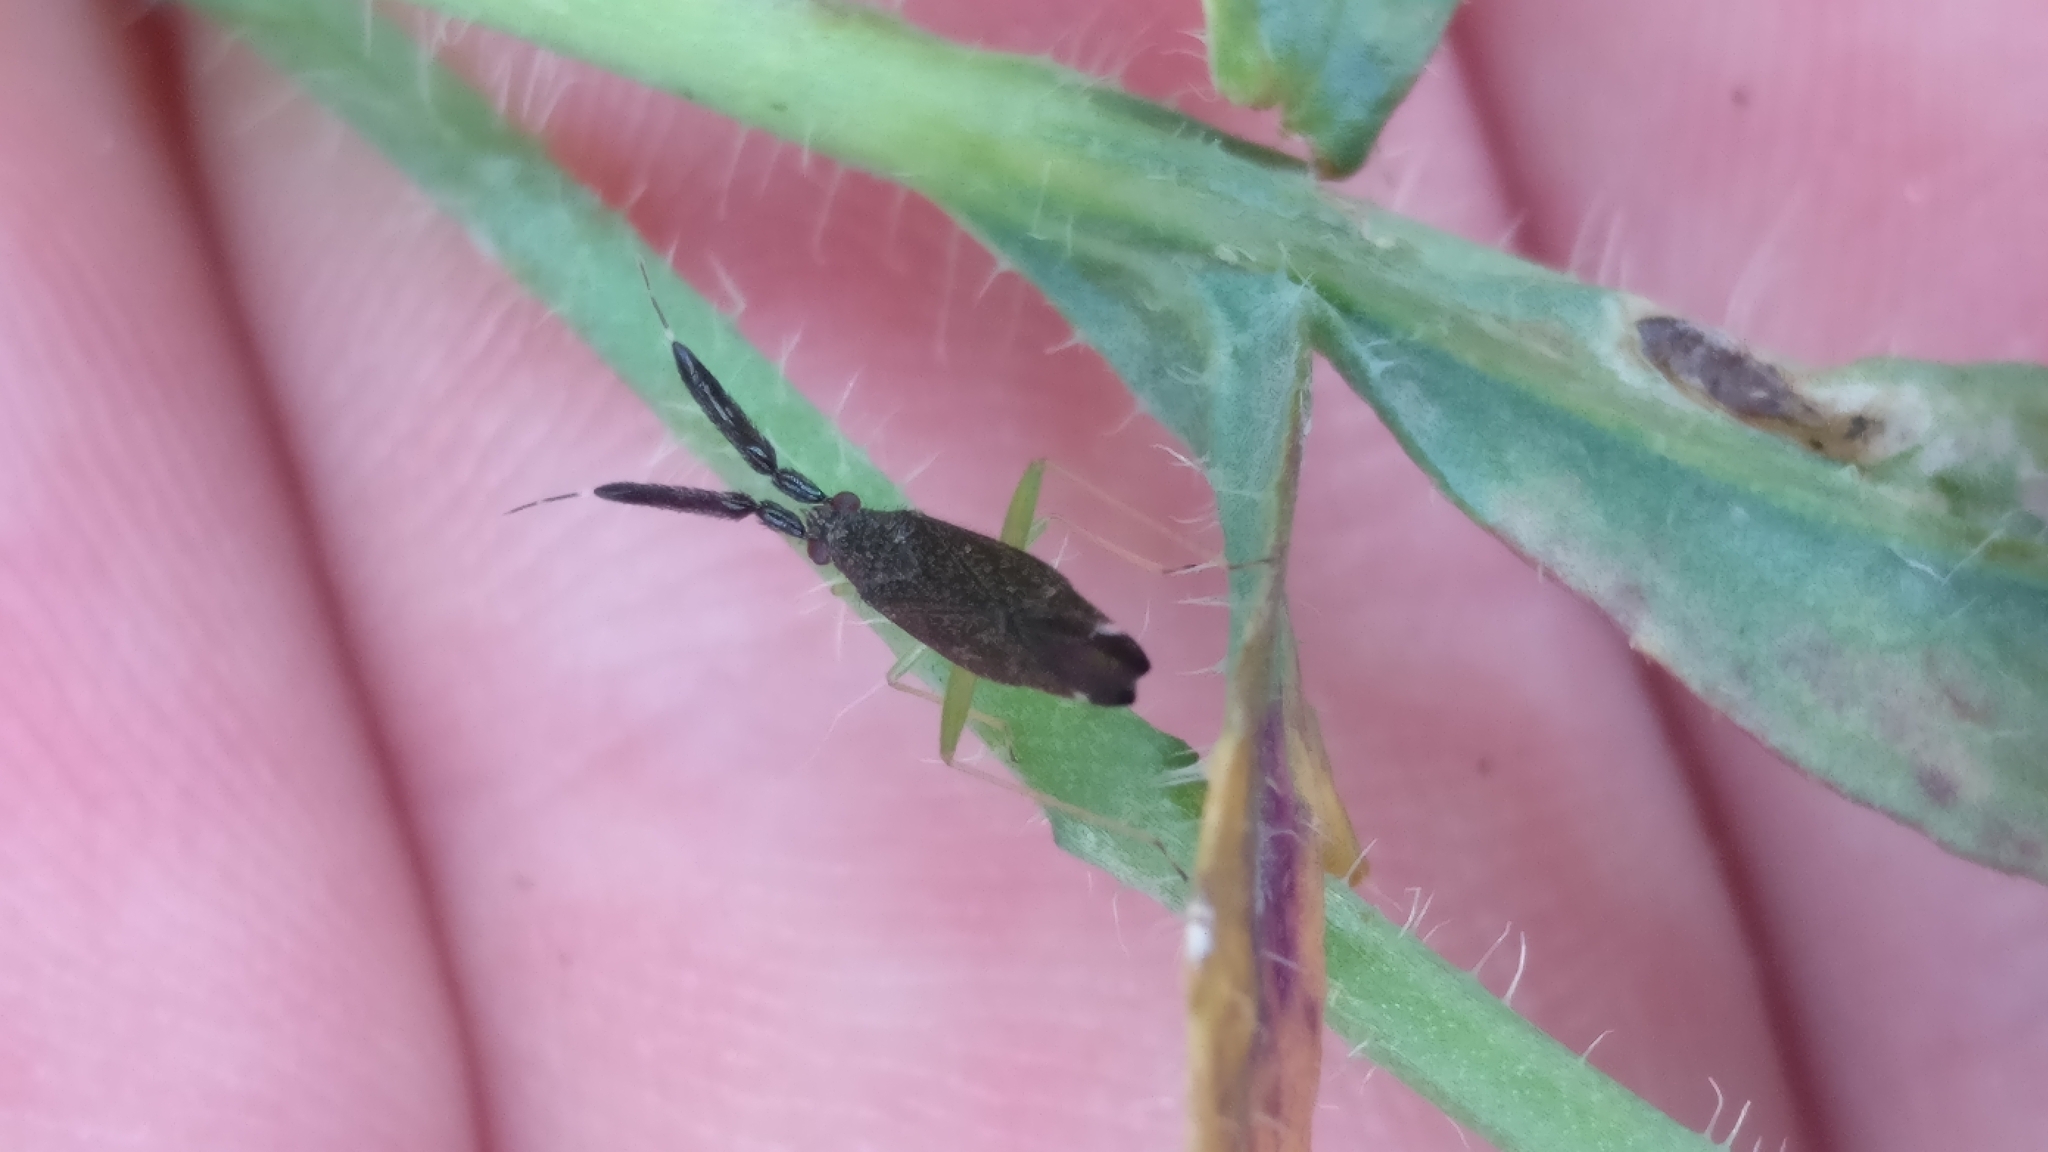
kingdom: Animalia
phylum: Arthropoda
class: Insecta
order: Hemiptera
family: Miridae
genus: Heterotoma
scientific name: Heterotoma planicornis
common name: Plant bug
